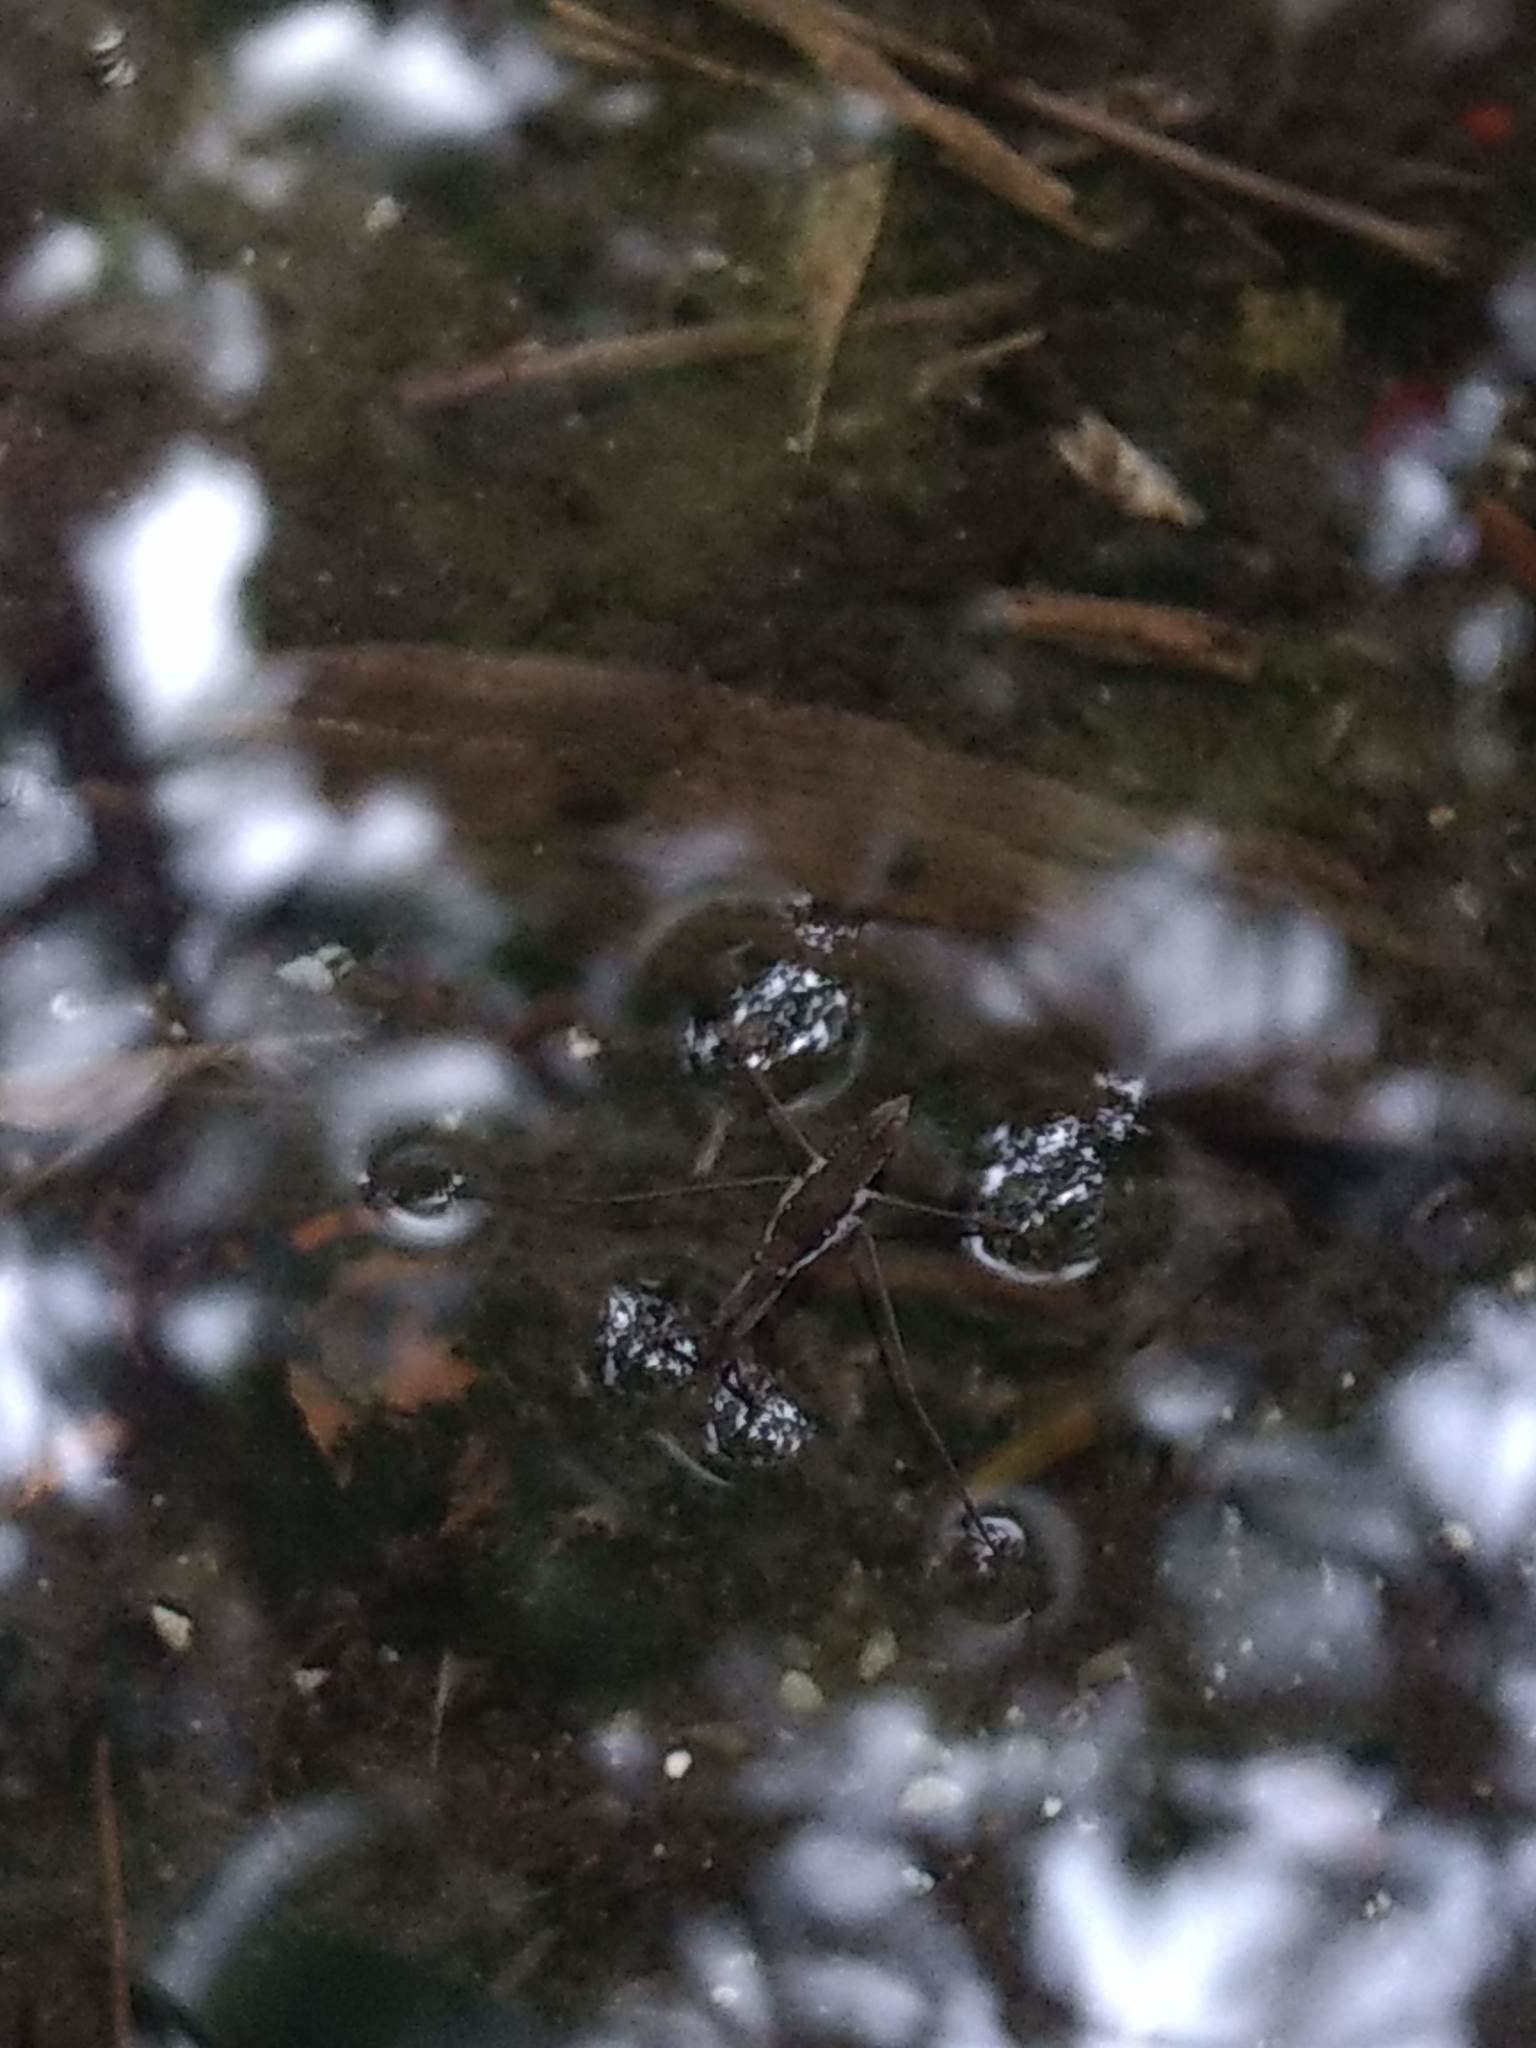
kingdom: Animalia
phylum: Arthropoda
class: Insecta
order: Hemiptera
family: Gerridae
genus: Aquarius
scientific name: Aquarius remigis
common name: Common water strider
